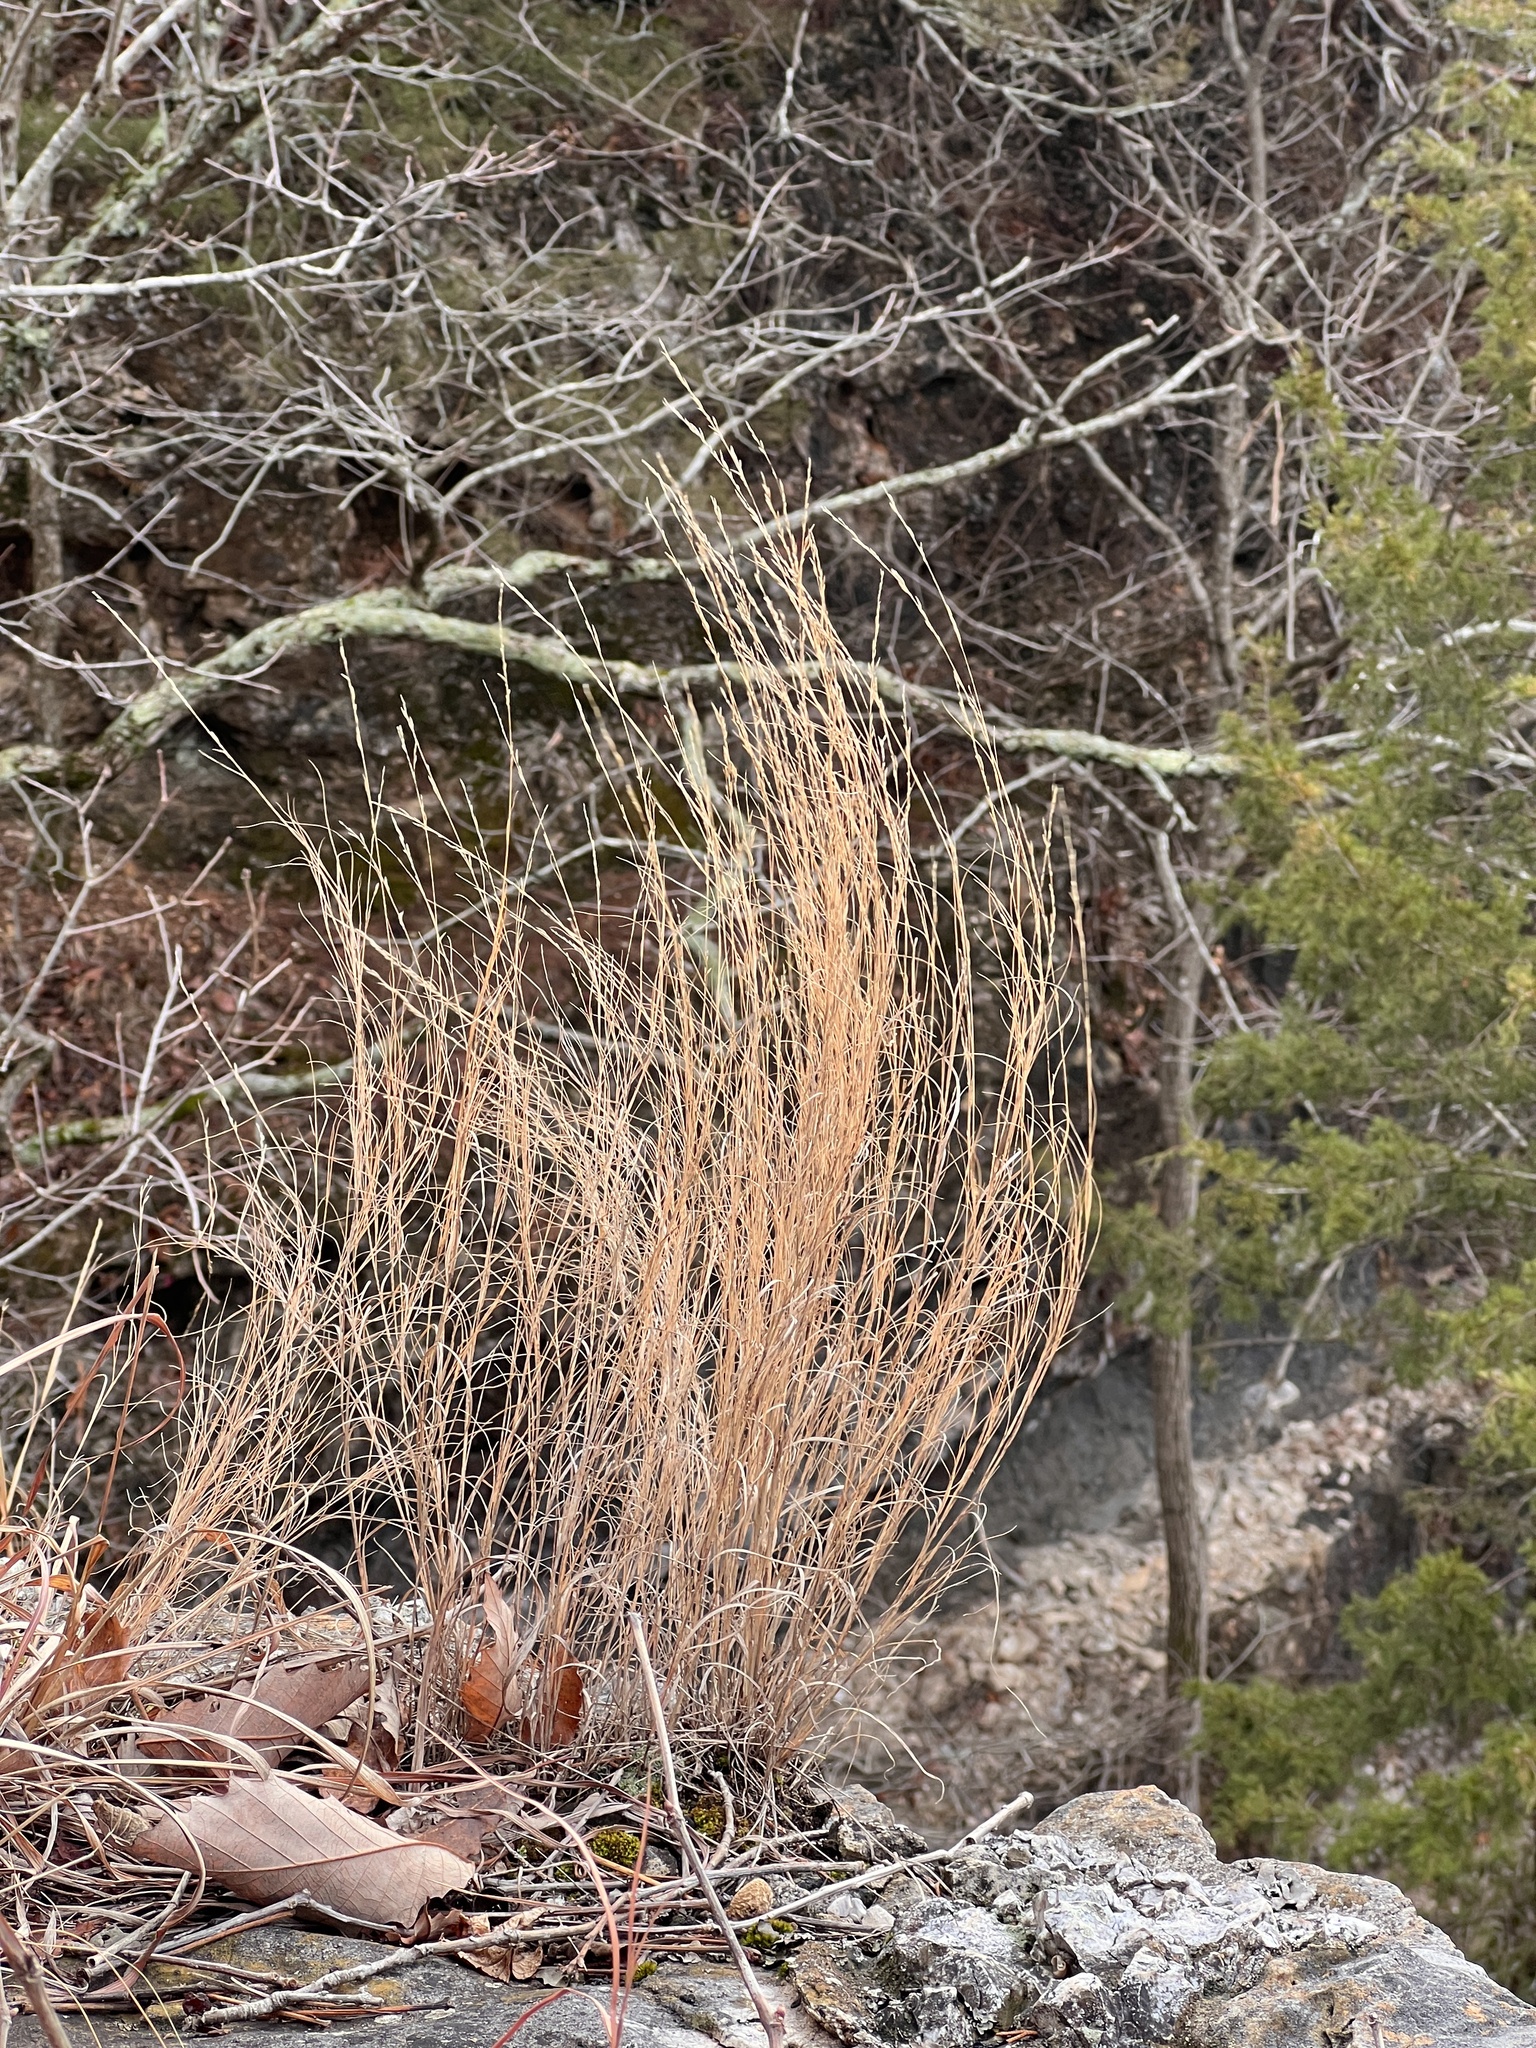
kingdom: Plantae
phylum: Tracheophyta
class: Liliopsida
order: Poales
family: Poaceae
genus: Muhlenbergia
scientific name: Muhlenbergia cuspidata
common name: Plains muhly
